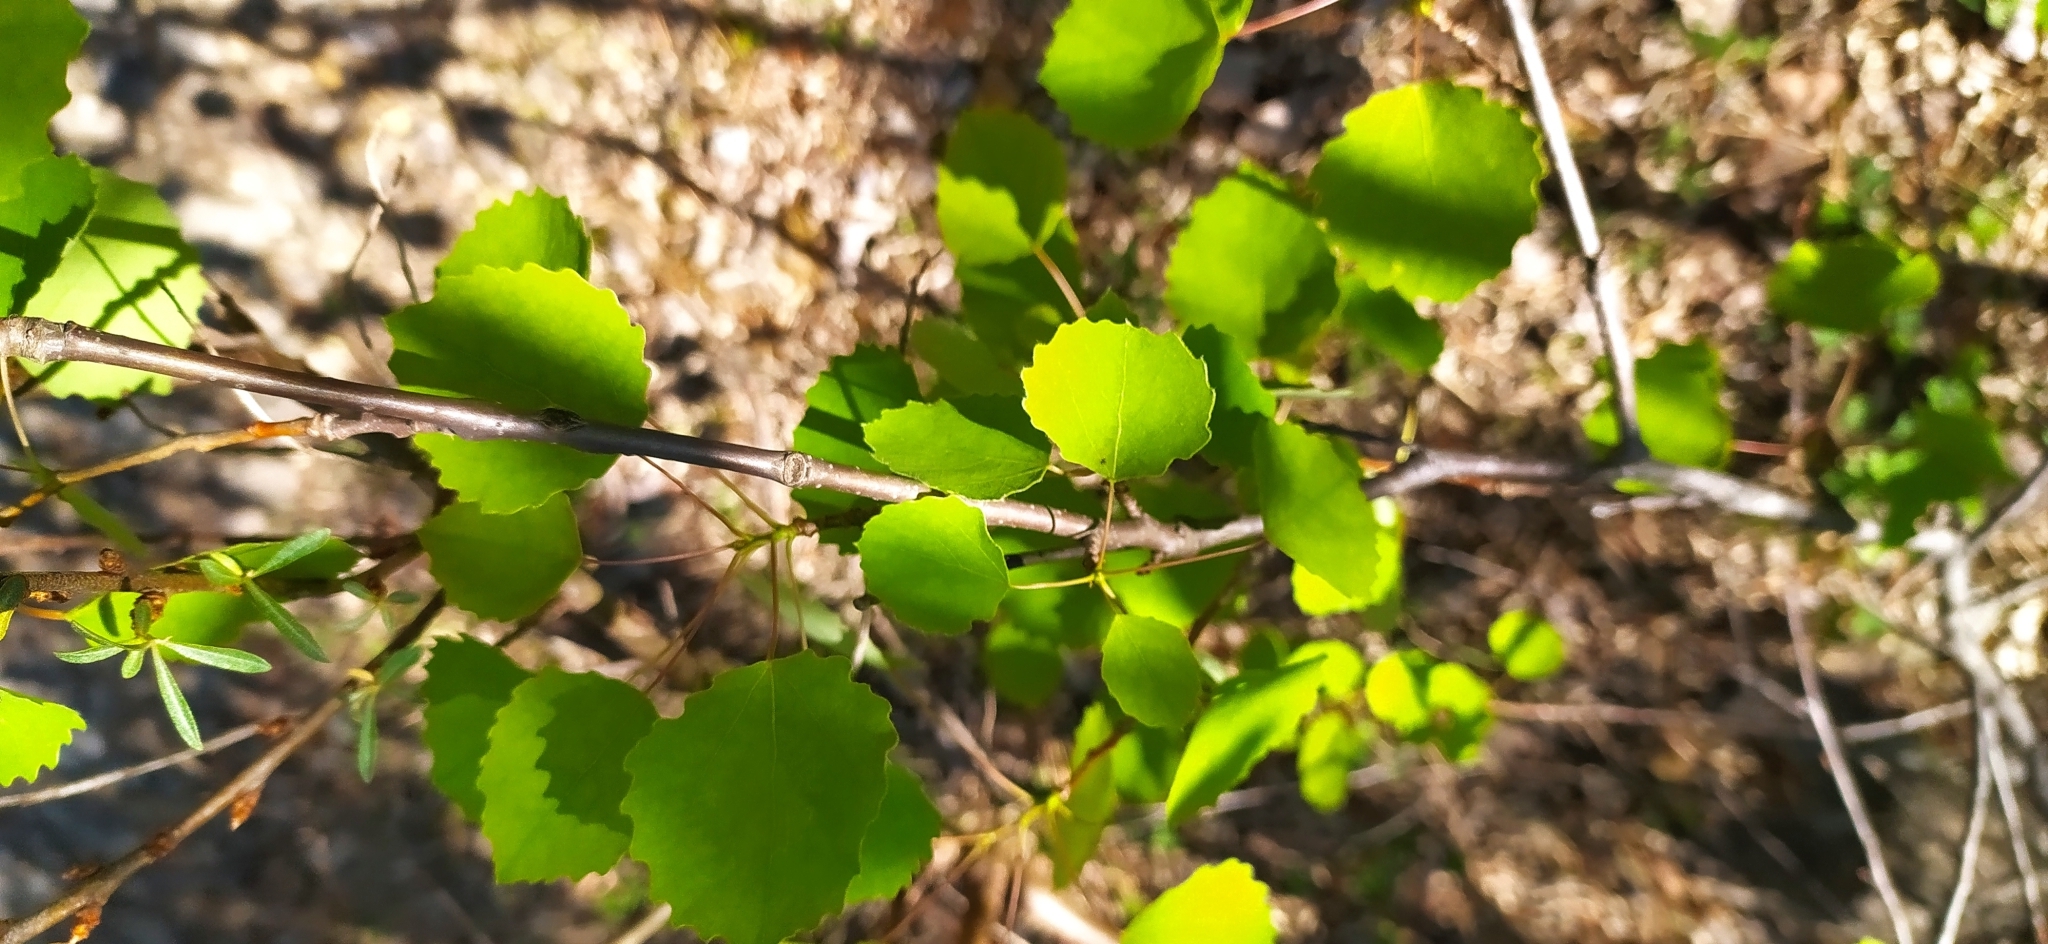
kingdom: Plantae
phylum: Tracheophyta
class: Magnoliopsida
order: Malpighiales
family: Salicaceae
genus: Populus
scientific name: Populus tremula
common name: European aspen
